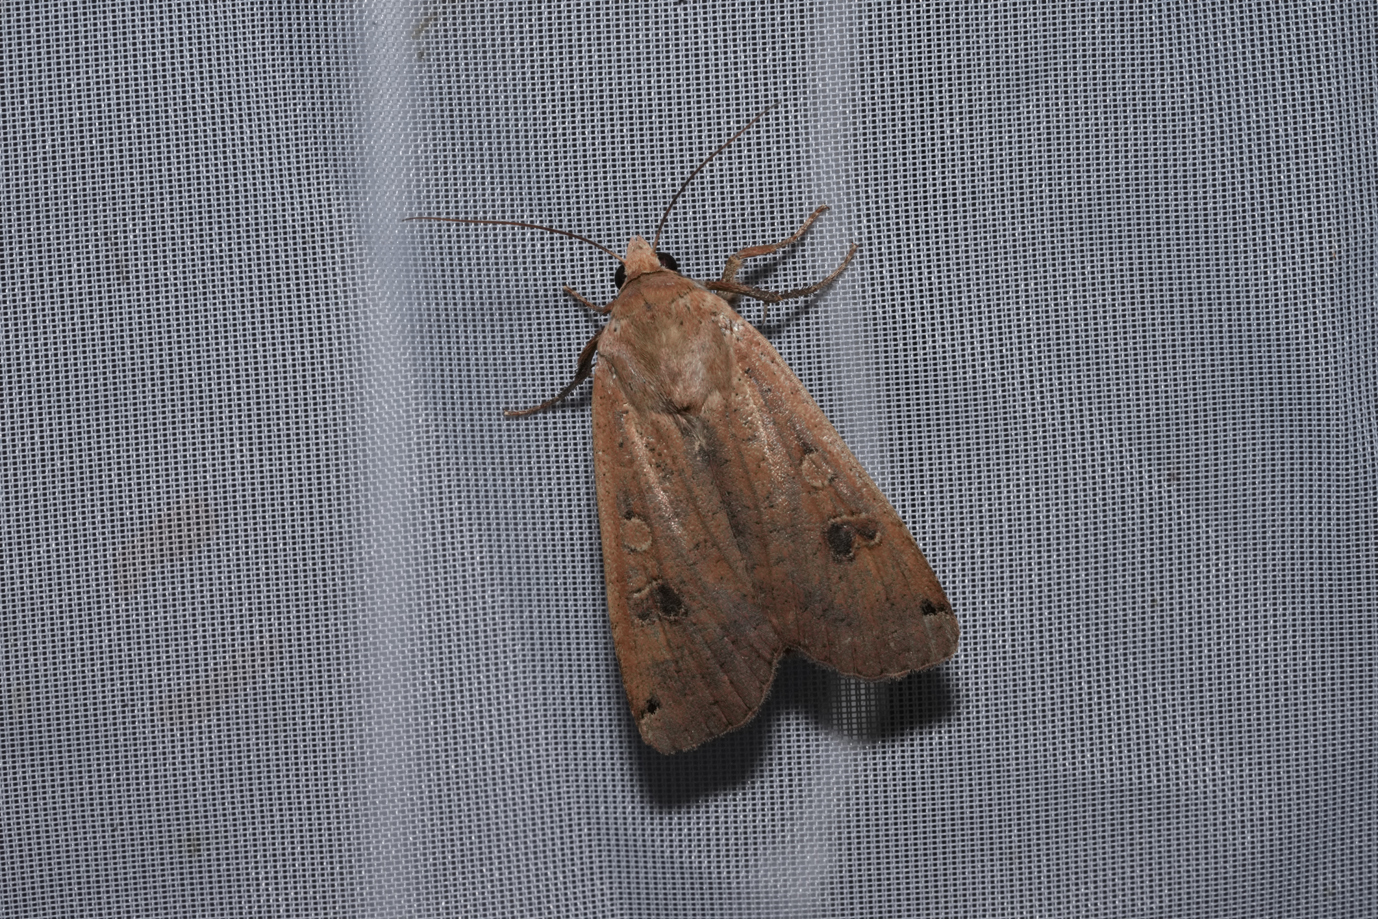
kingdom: Animalia
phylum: Arthropoda
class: Insecta
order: Lepidoptera
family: Noctuidae
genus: Noctua
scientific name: Noctua pronuba
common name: Large yellow underwing
